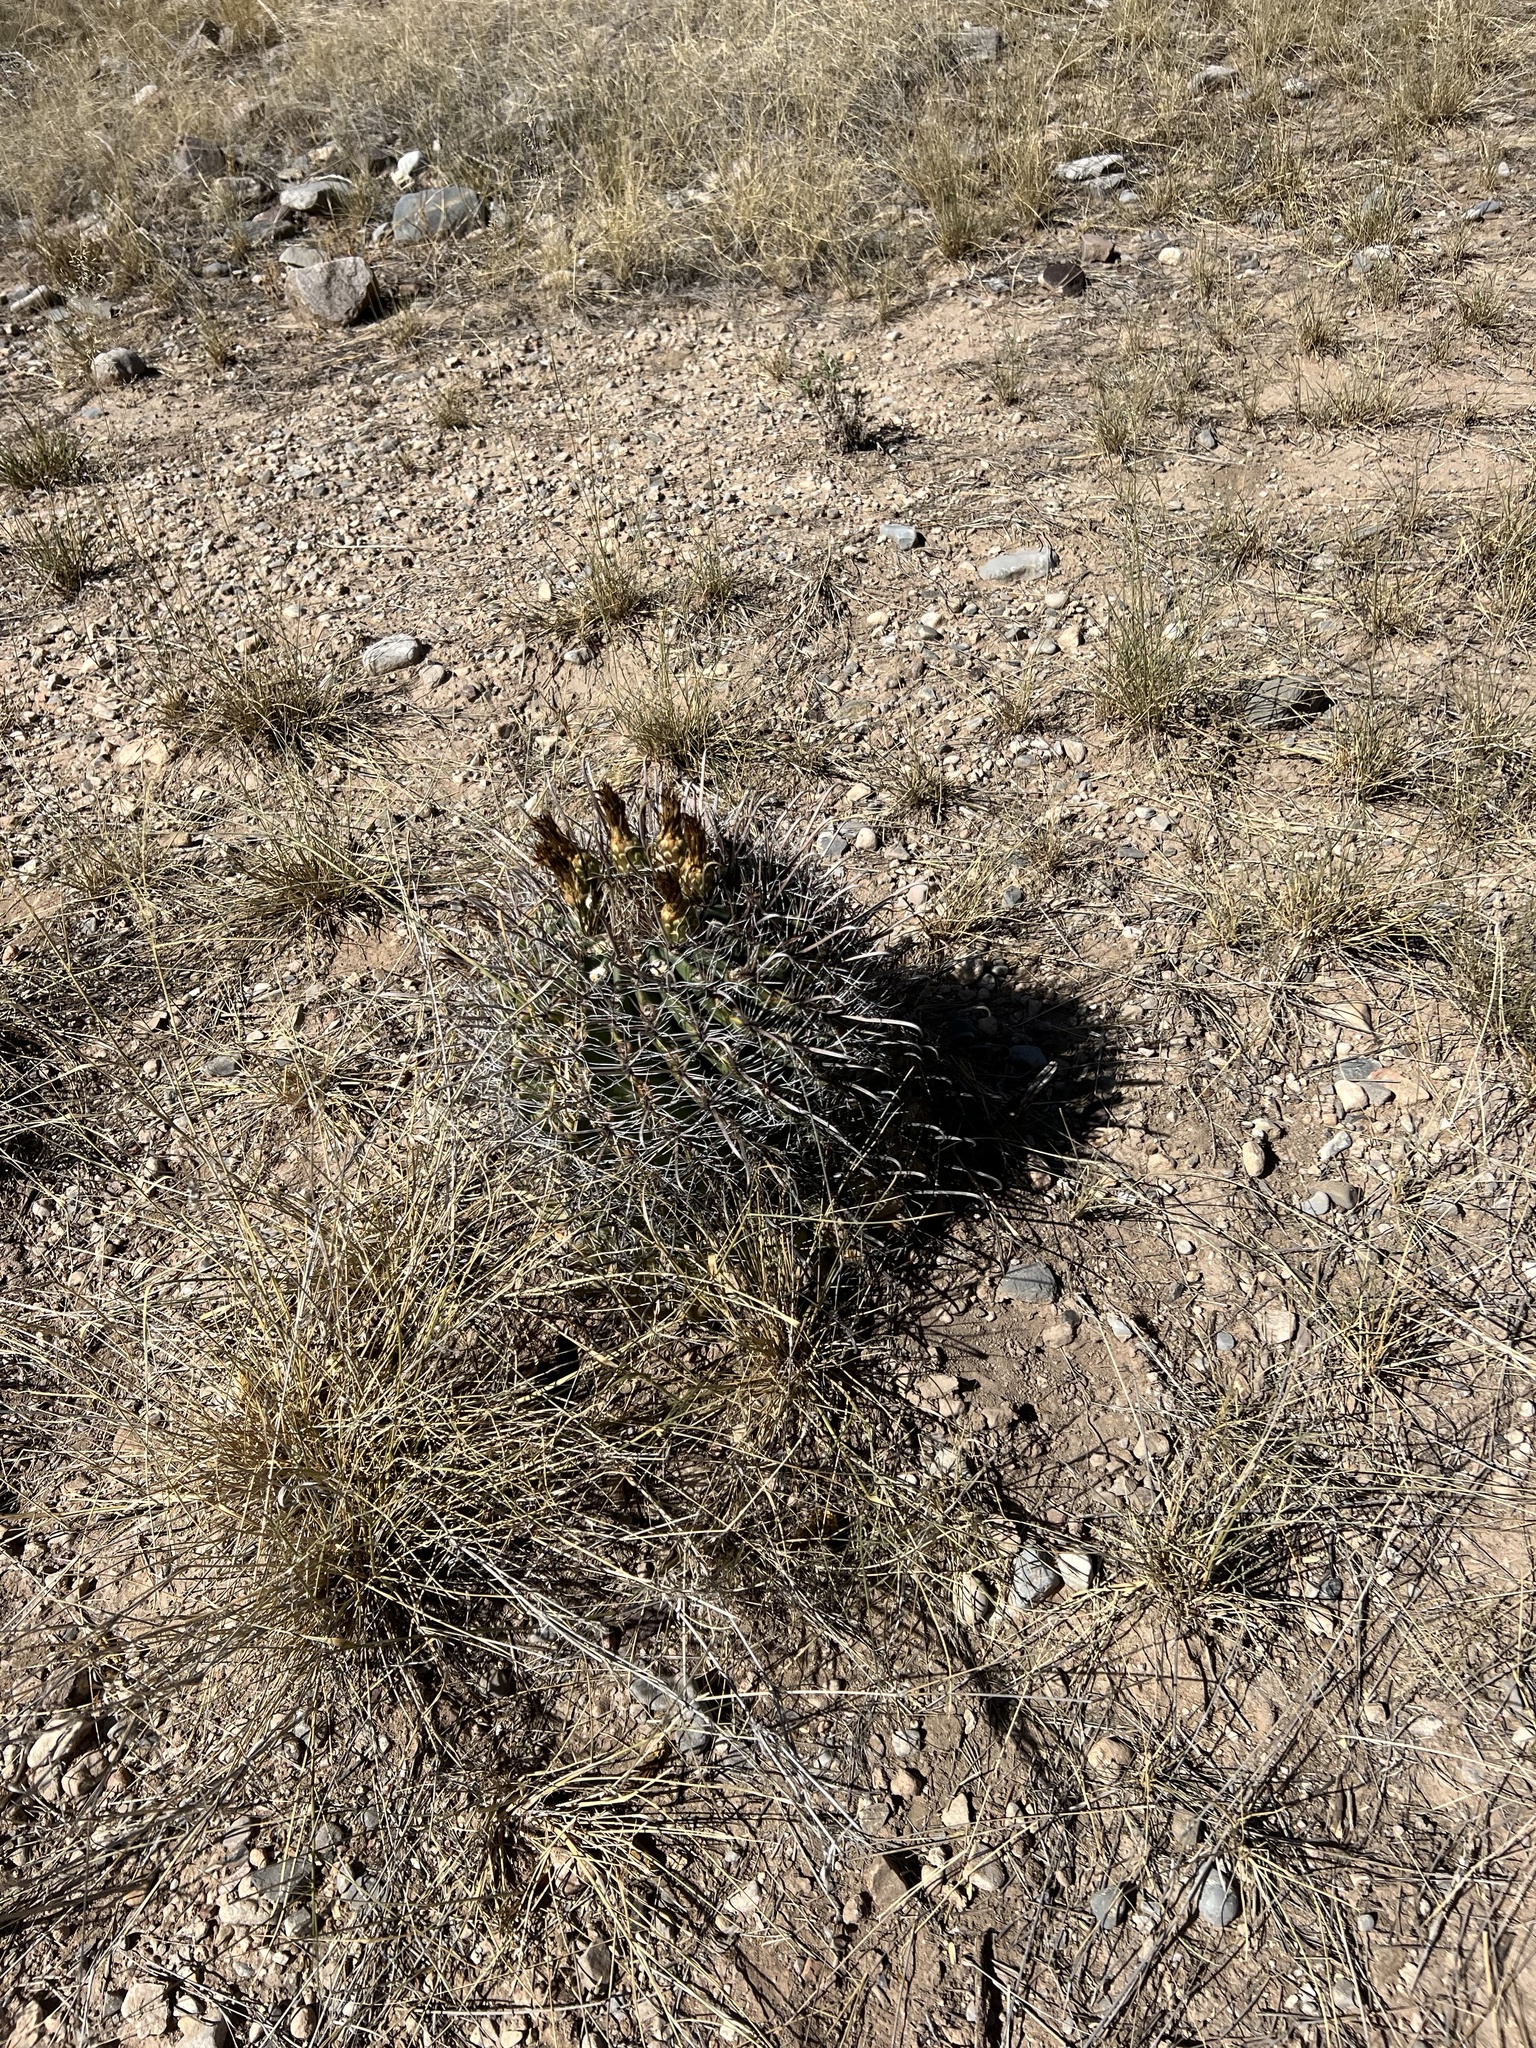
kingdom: Plantae
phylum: Tracheophyta
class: Magnoliopsida
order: Caryophyllales
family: Cactaceae
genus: Ferocactus
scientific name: Ferocactus wislizeni
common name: Candy barrel cactus
